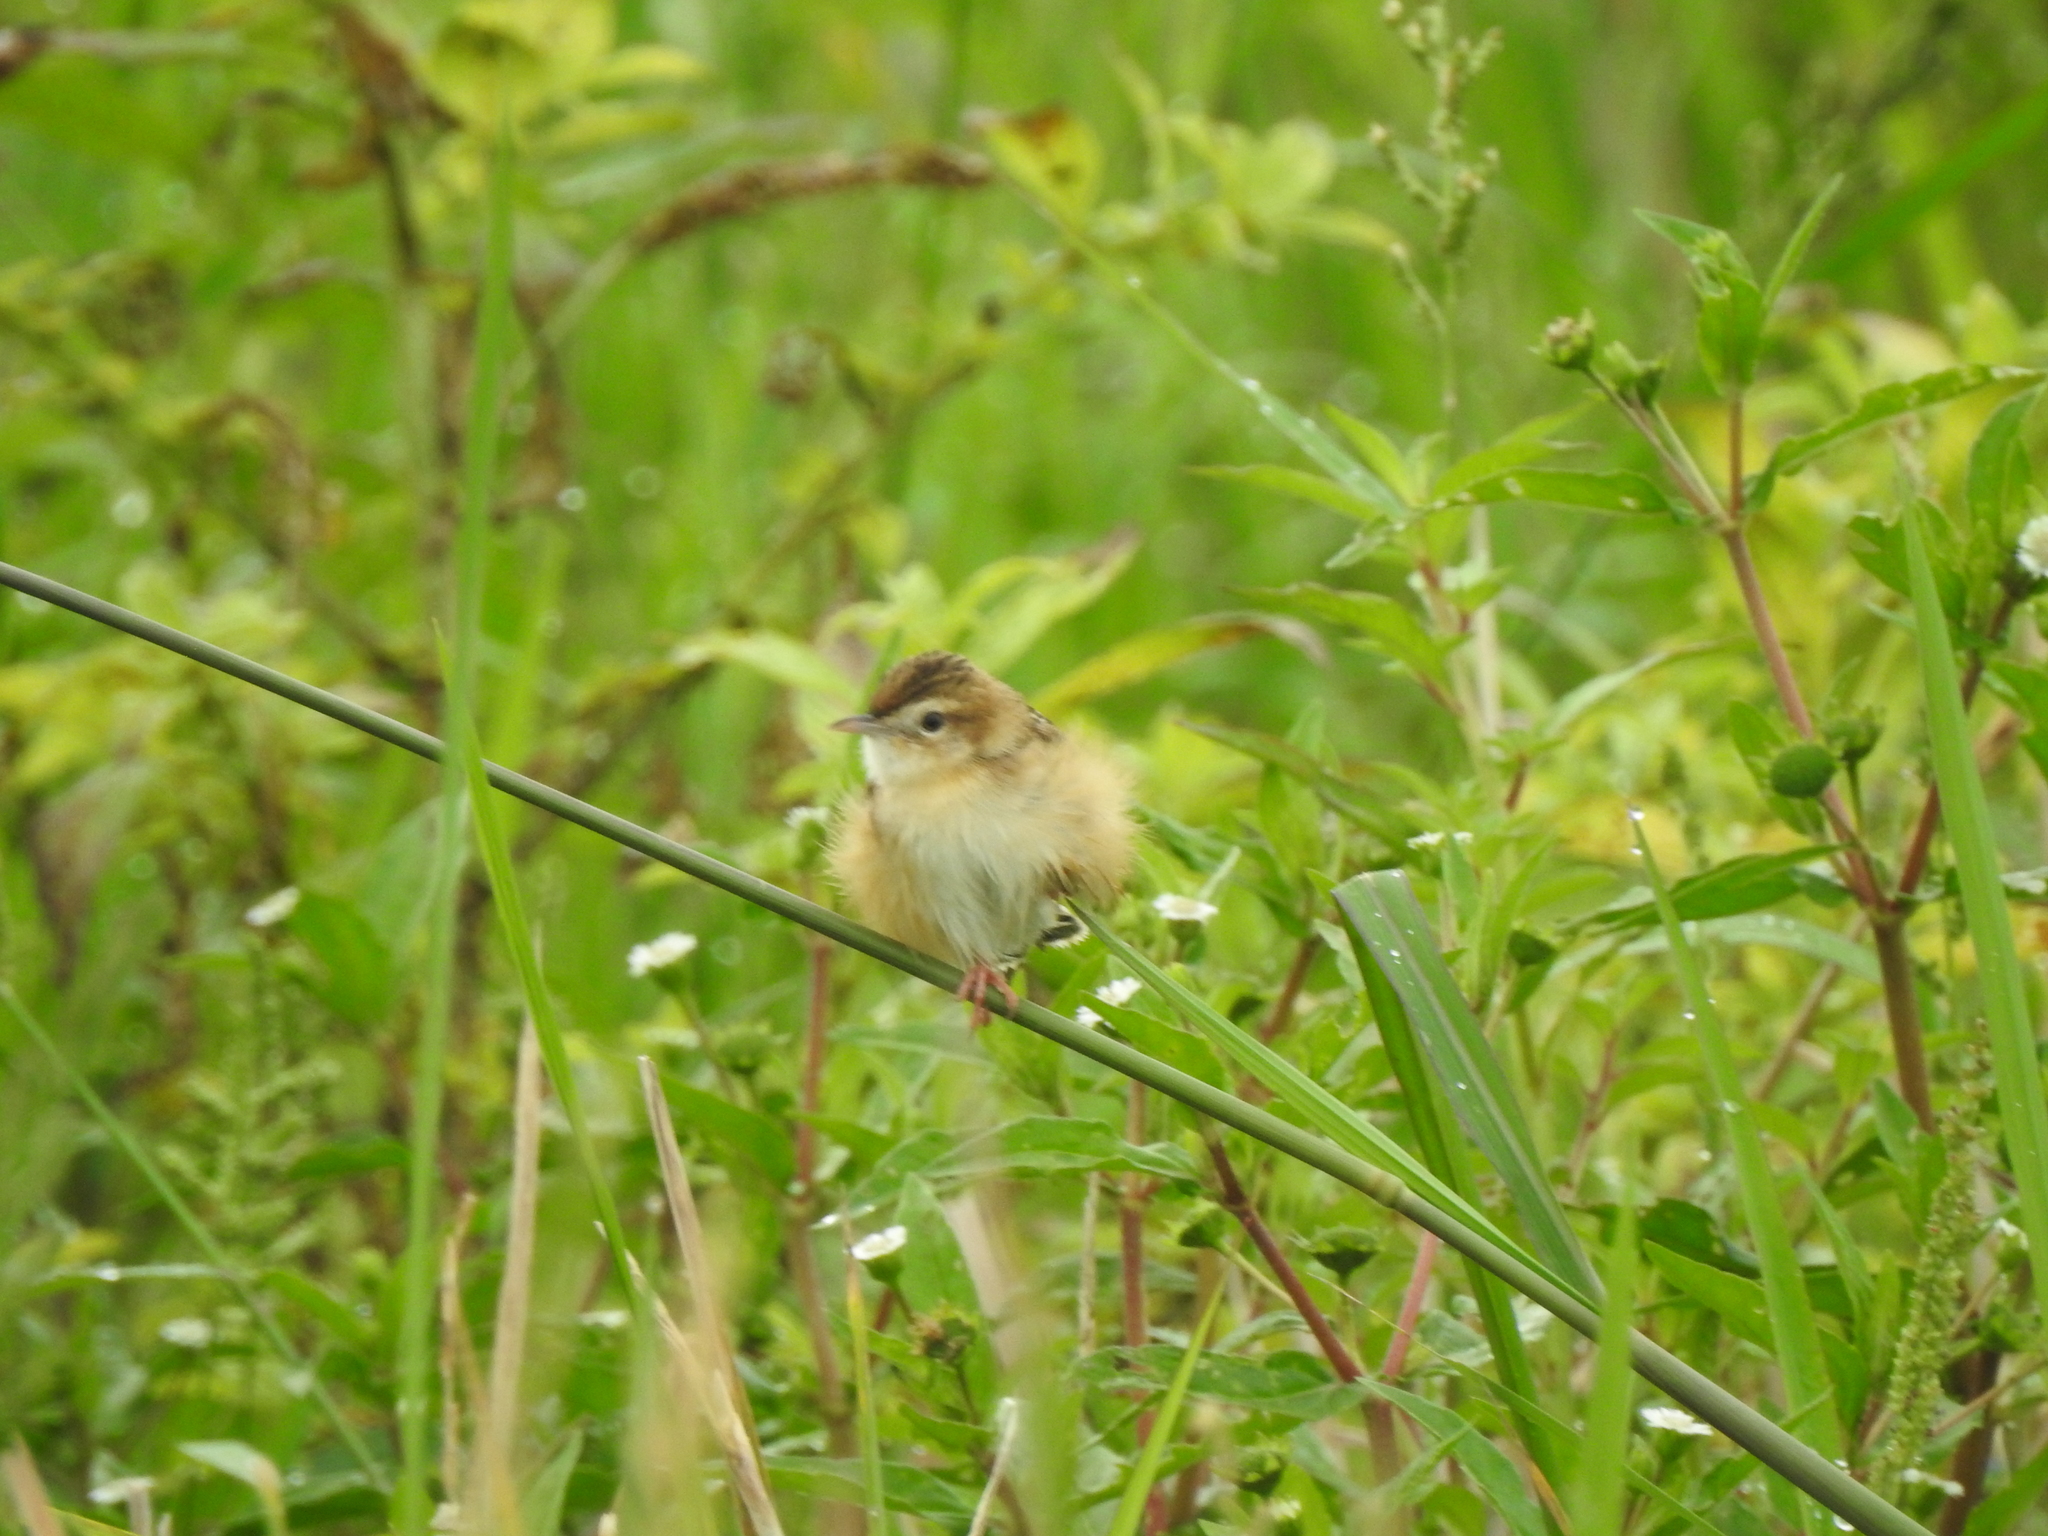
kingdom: Animalia
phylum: Chordata
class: Aves
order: Passeriformes
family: Cisticolidae
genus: Cisticola
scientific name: Cisticola juncidis
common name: Zitting cisticola
